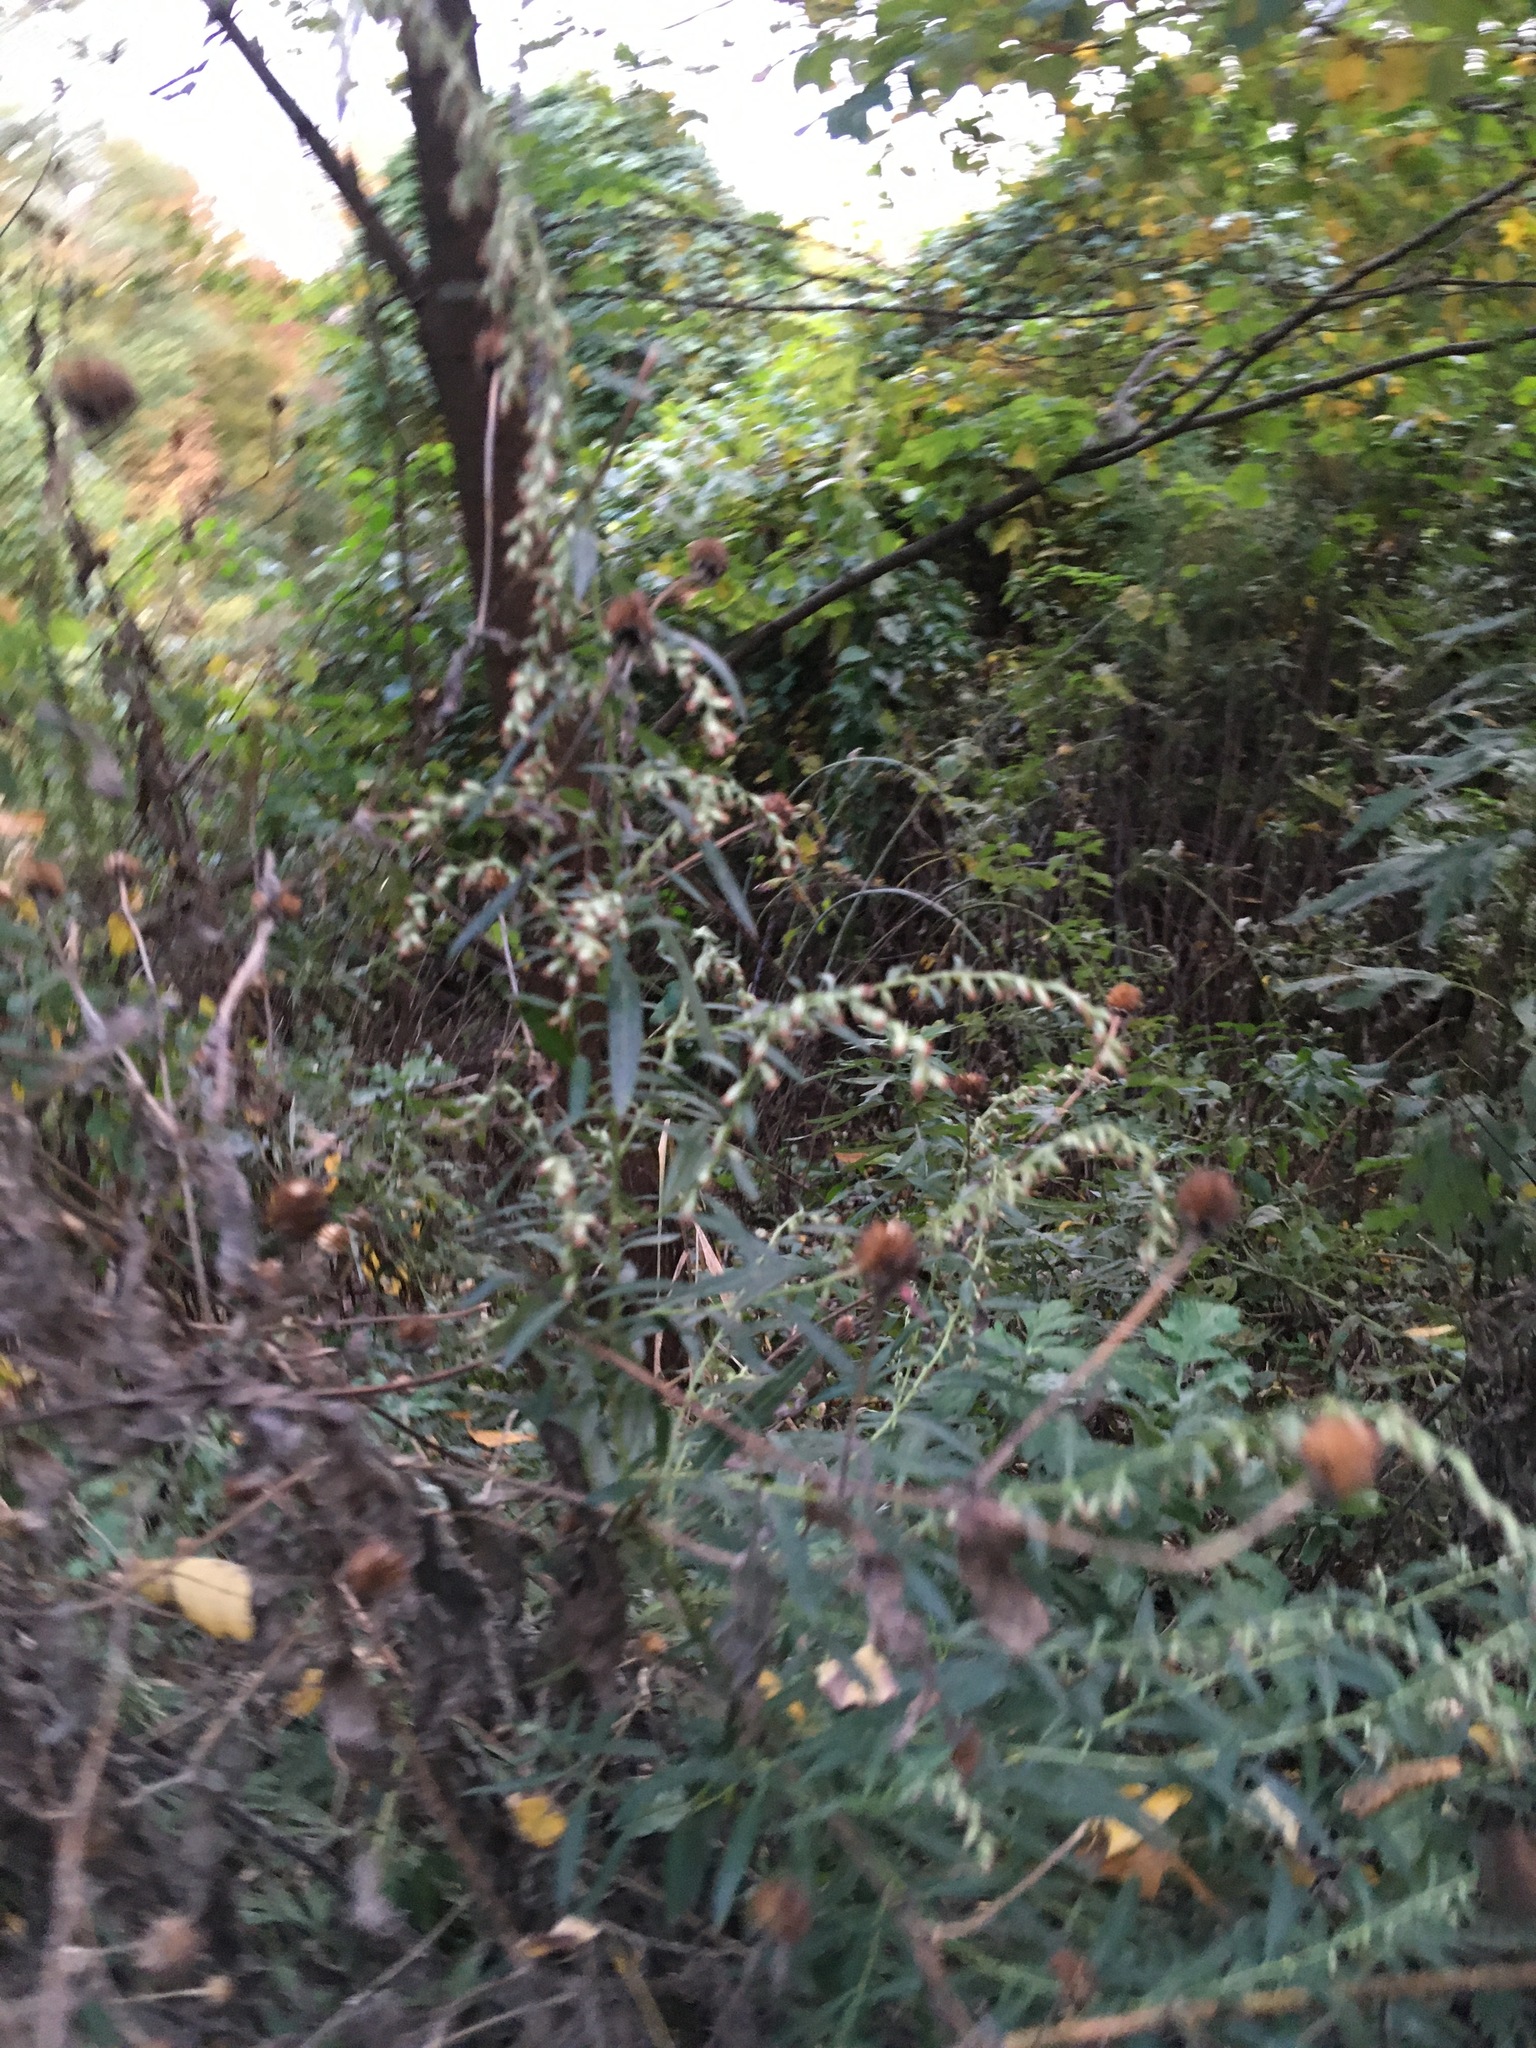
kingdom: Plantae
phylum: Tracheophyta
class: Magnoliopsida
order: Asterales
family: Asteraceae
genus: Artemisia
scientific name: Artemisia vulgaris
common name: Mugwort
